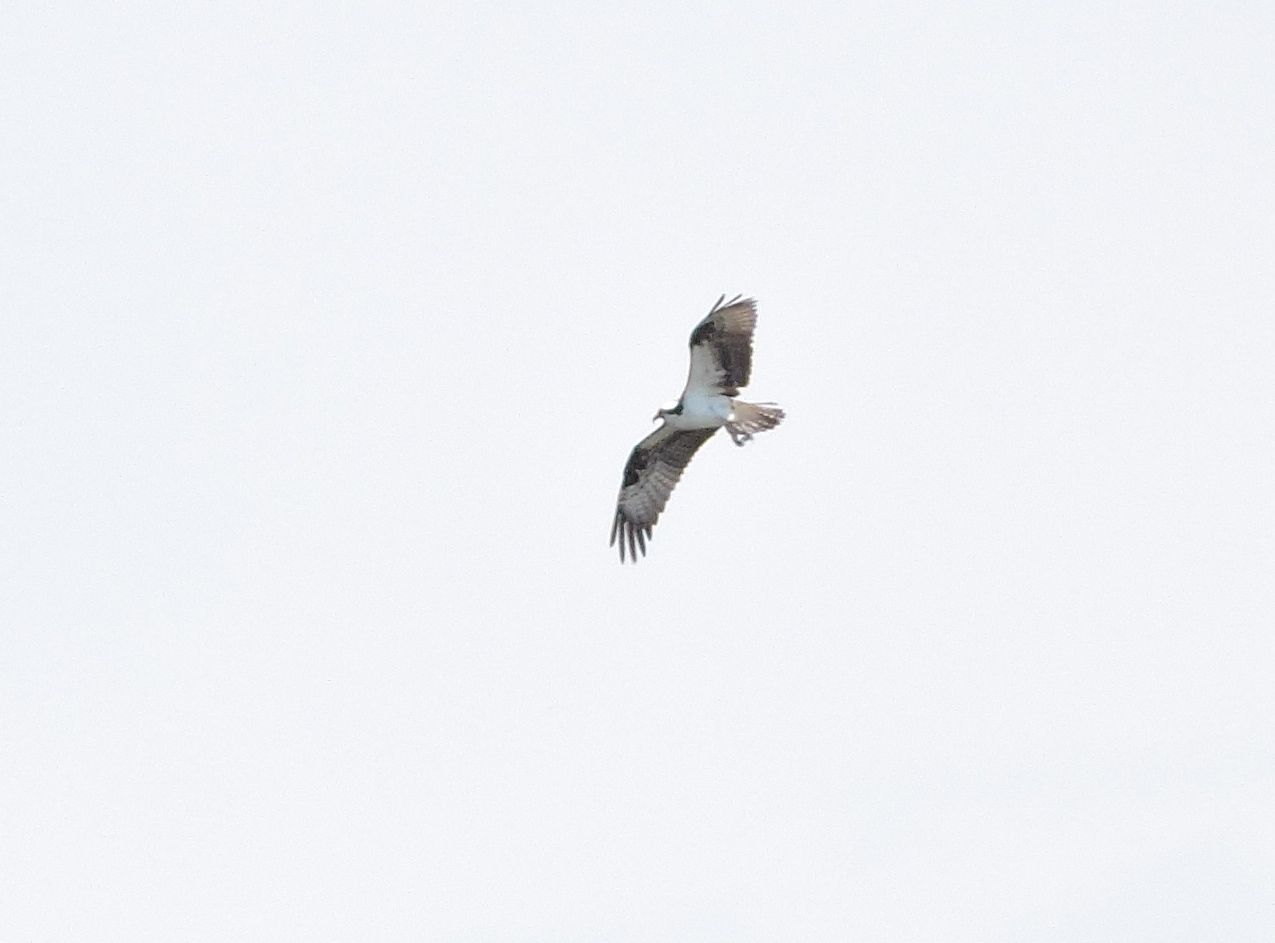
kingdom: Animalia
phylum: Chordata
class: Aves
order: Accipitriformes
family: Pandionidae
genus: Pandion
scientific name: Pandion haliaetus
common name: Osprey
